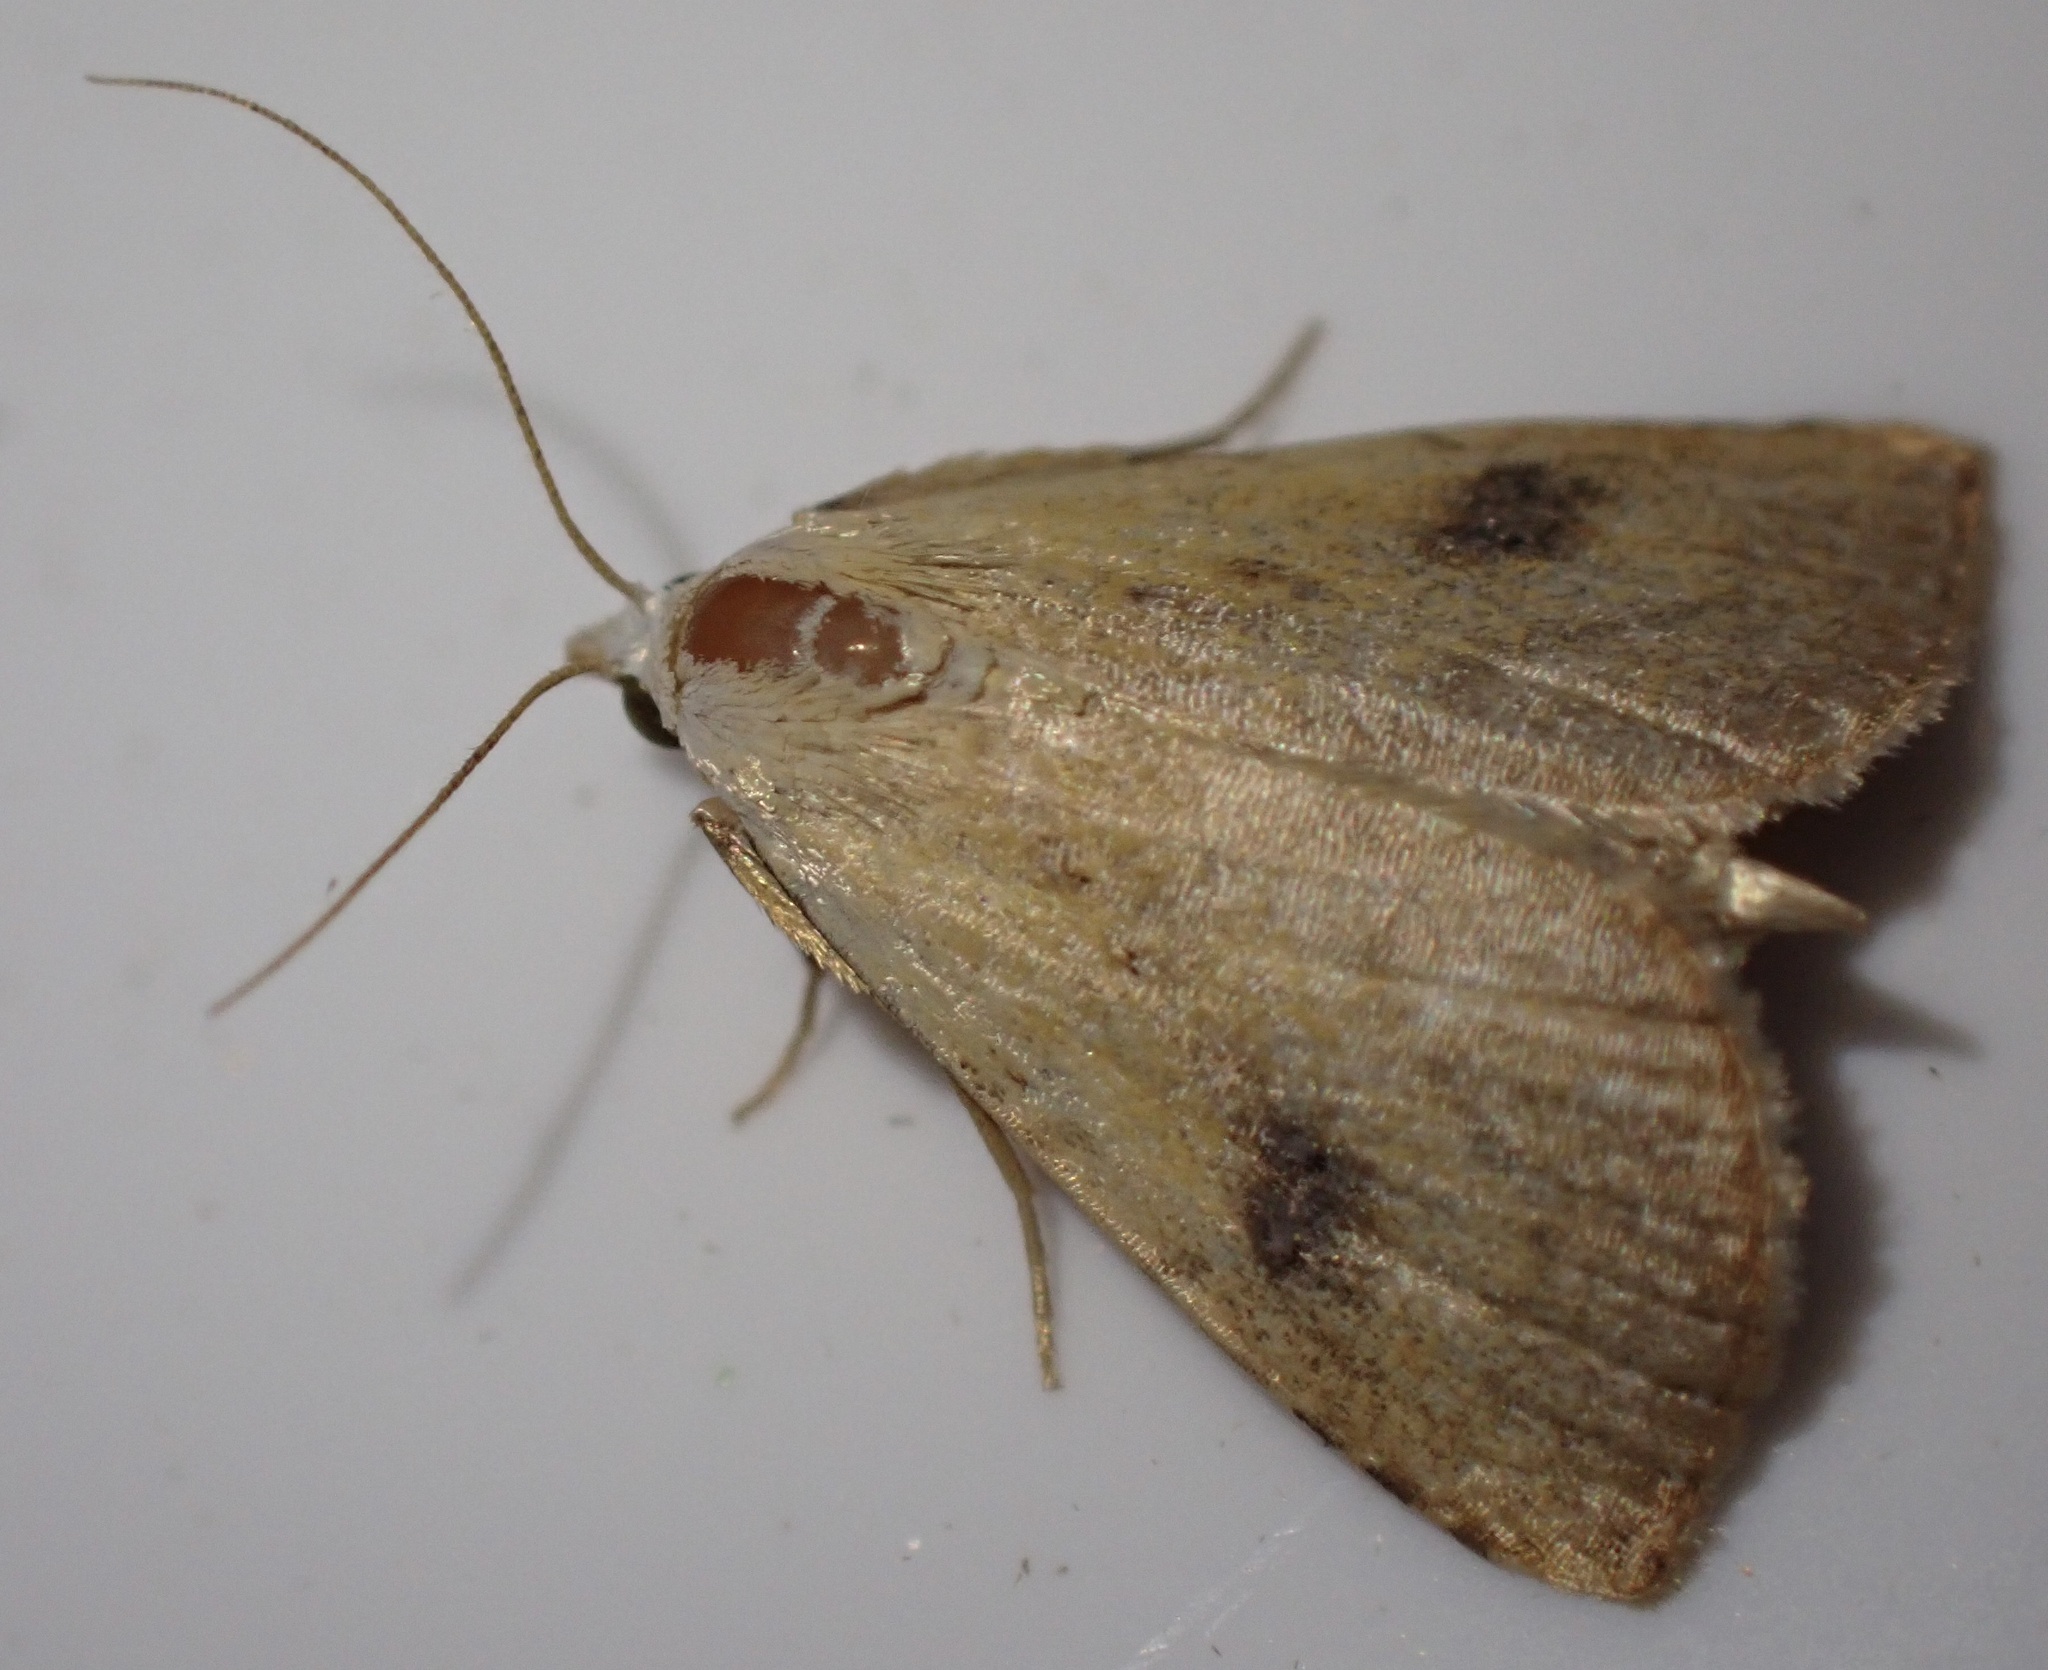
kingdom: Animalia
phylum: Arthropoda
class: Insecta
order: Lepidoptera
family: Erebidae
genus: Rivula
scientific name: Rivula sericealis
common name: Straw dot
